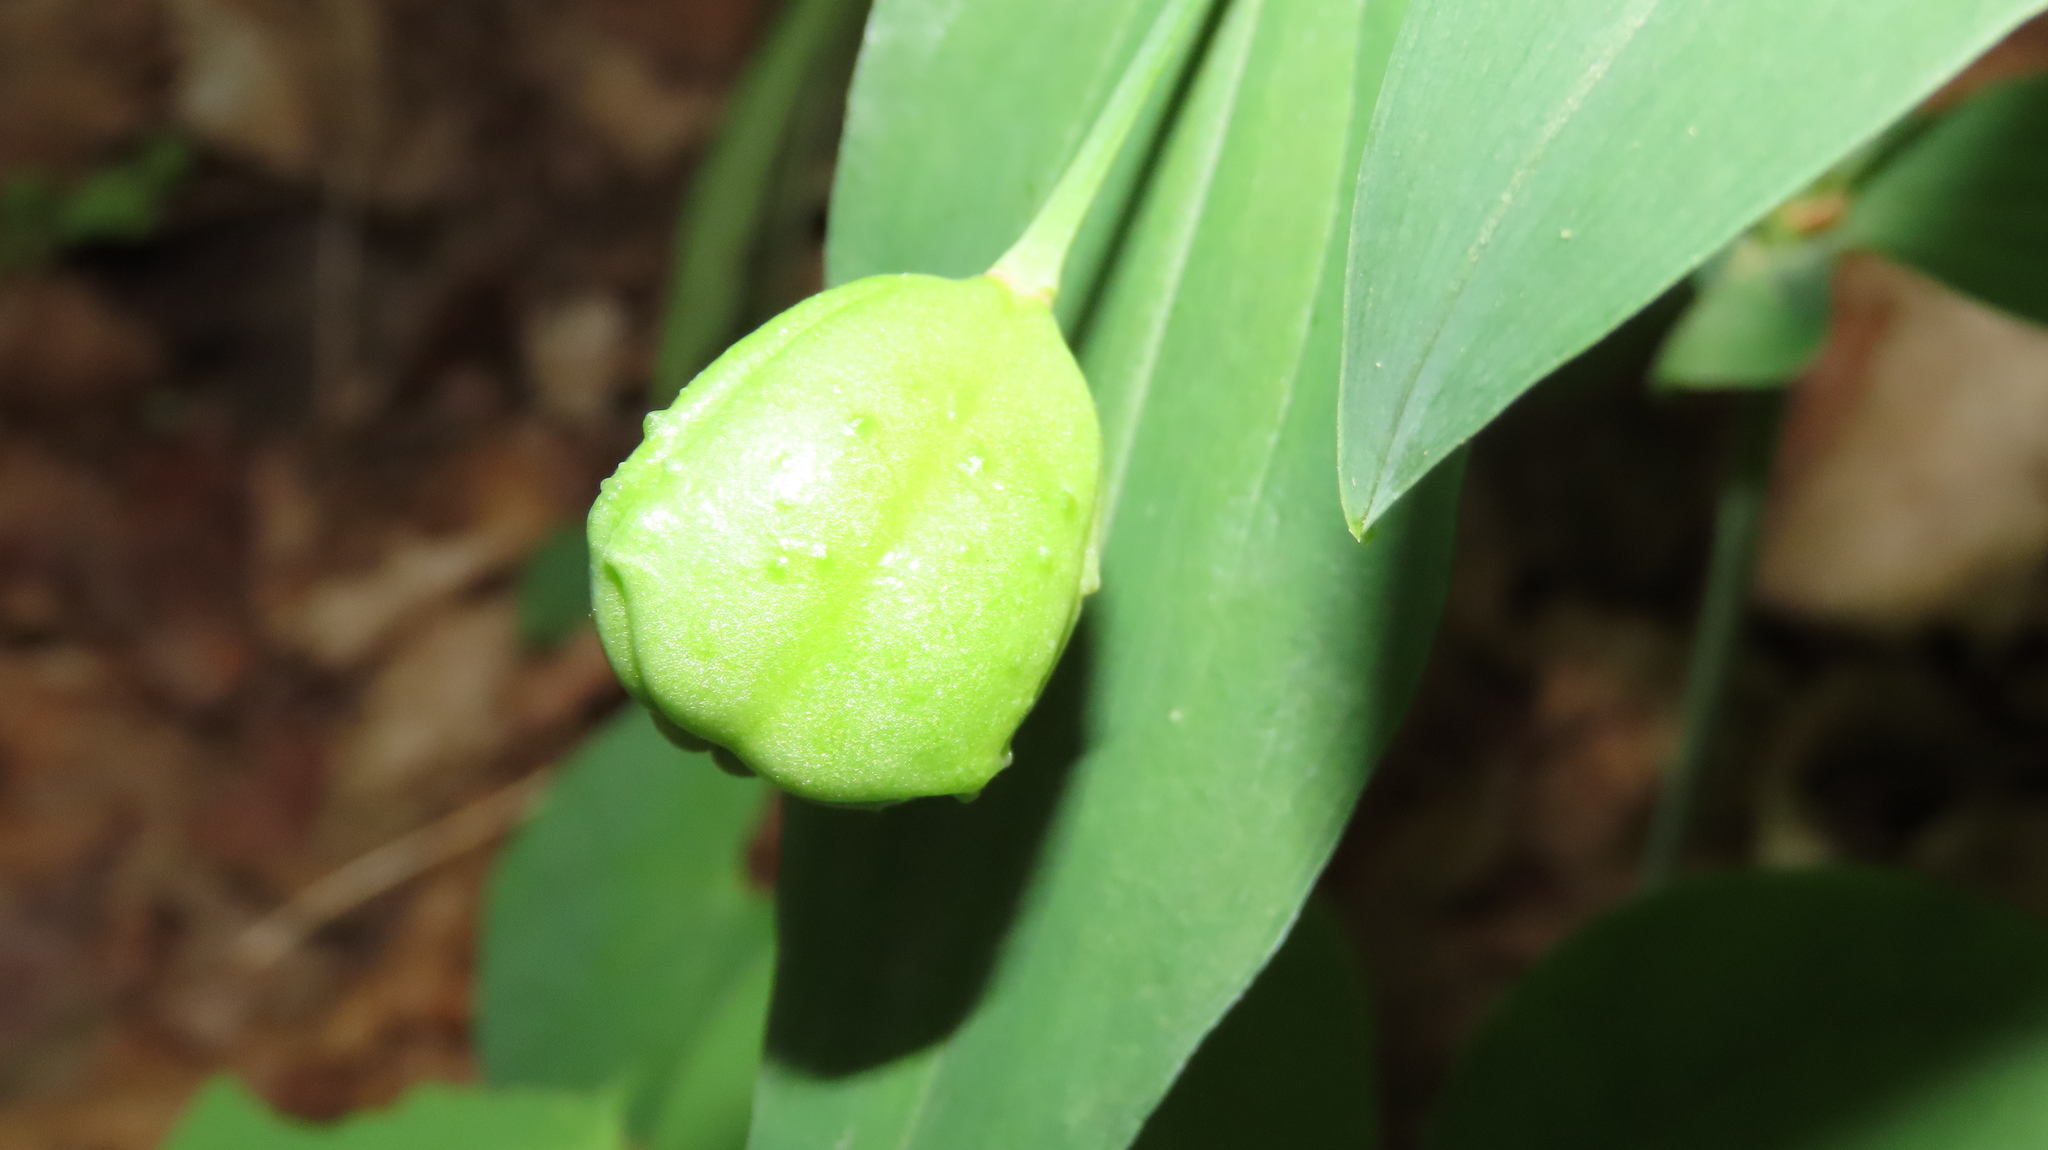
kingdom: Plantae
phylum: Tracheophyta
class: Liliopsida
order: Liliales
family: Colchicaceae
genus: Uvularia
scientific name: Uvularia grandiflora
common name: Bellwort
